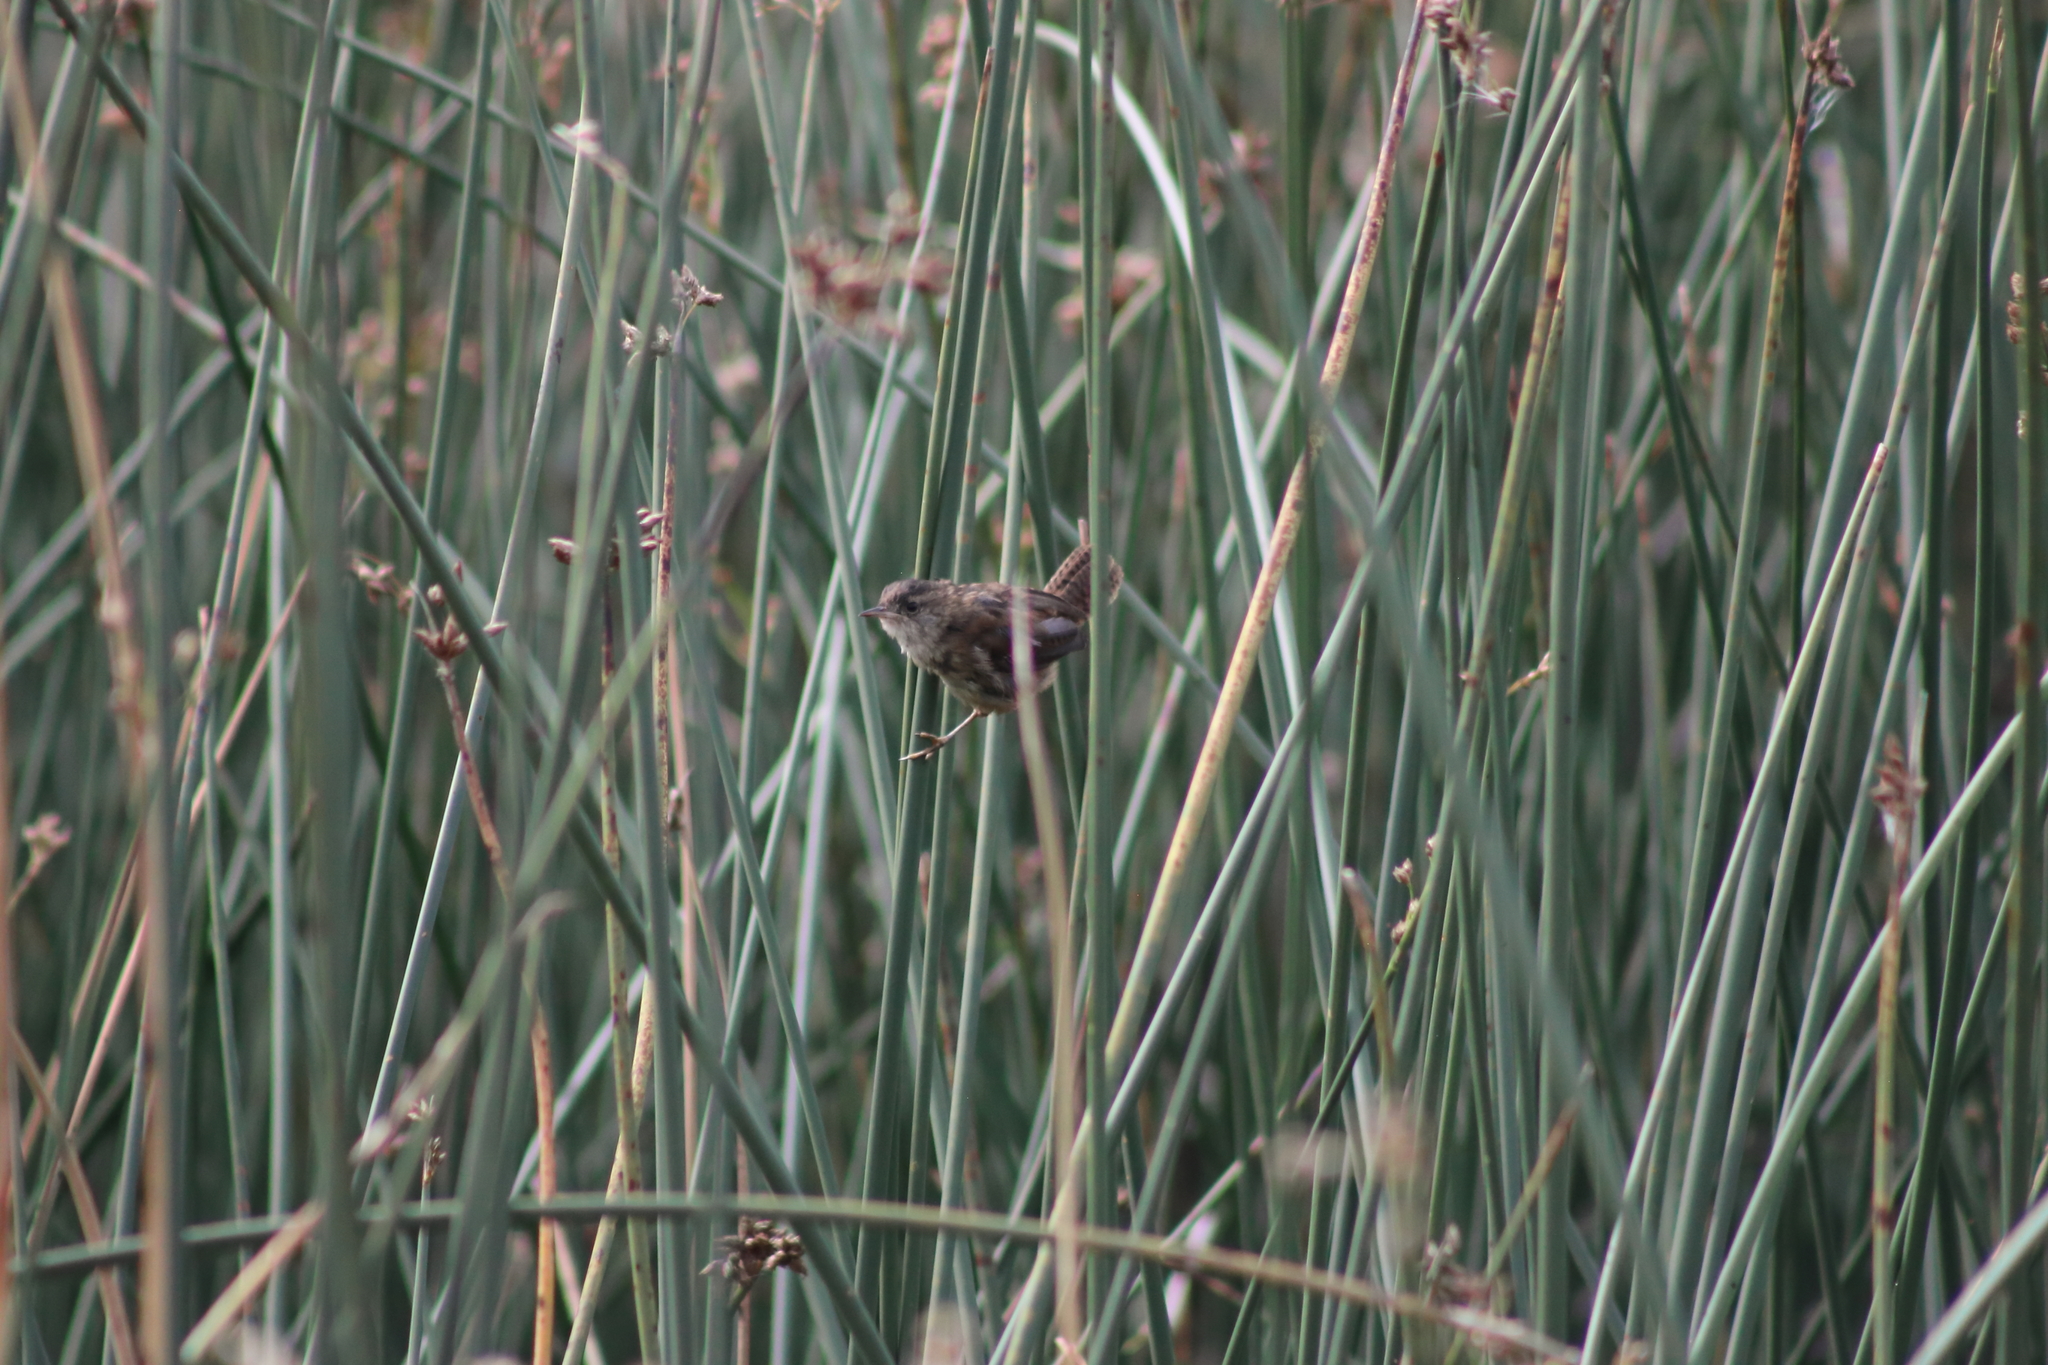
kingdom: Animalia
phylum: Chordata
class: Aves
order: Passeriformes
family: Troglodytidae
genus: Cistothorus
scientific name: Cistothorus palustris
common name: Marsh wren
